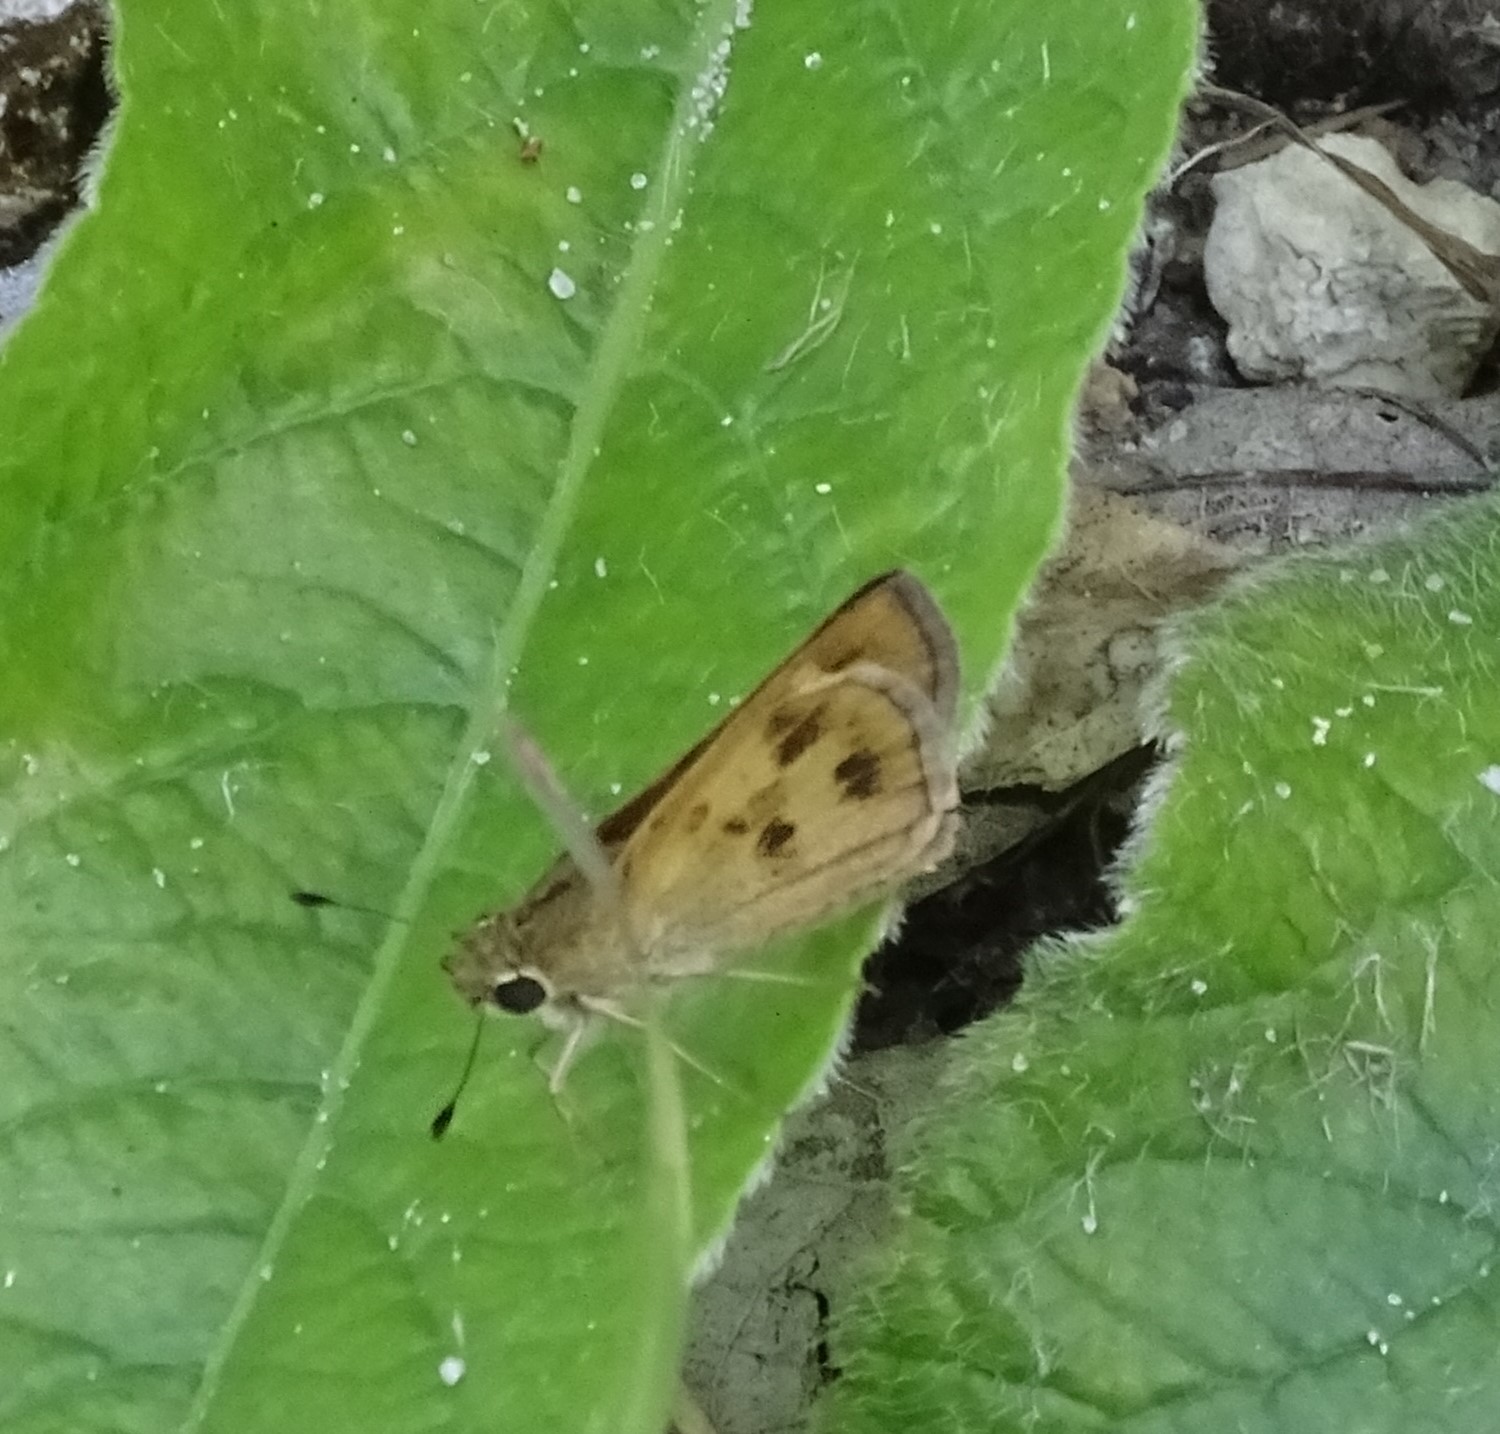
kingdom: Animalia
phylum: Arthropoda
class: Insecta
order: Lepidoptera
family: Hesperiidae
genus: Polites
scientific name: Polites vibex
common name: Whirlabout
